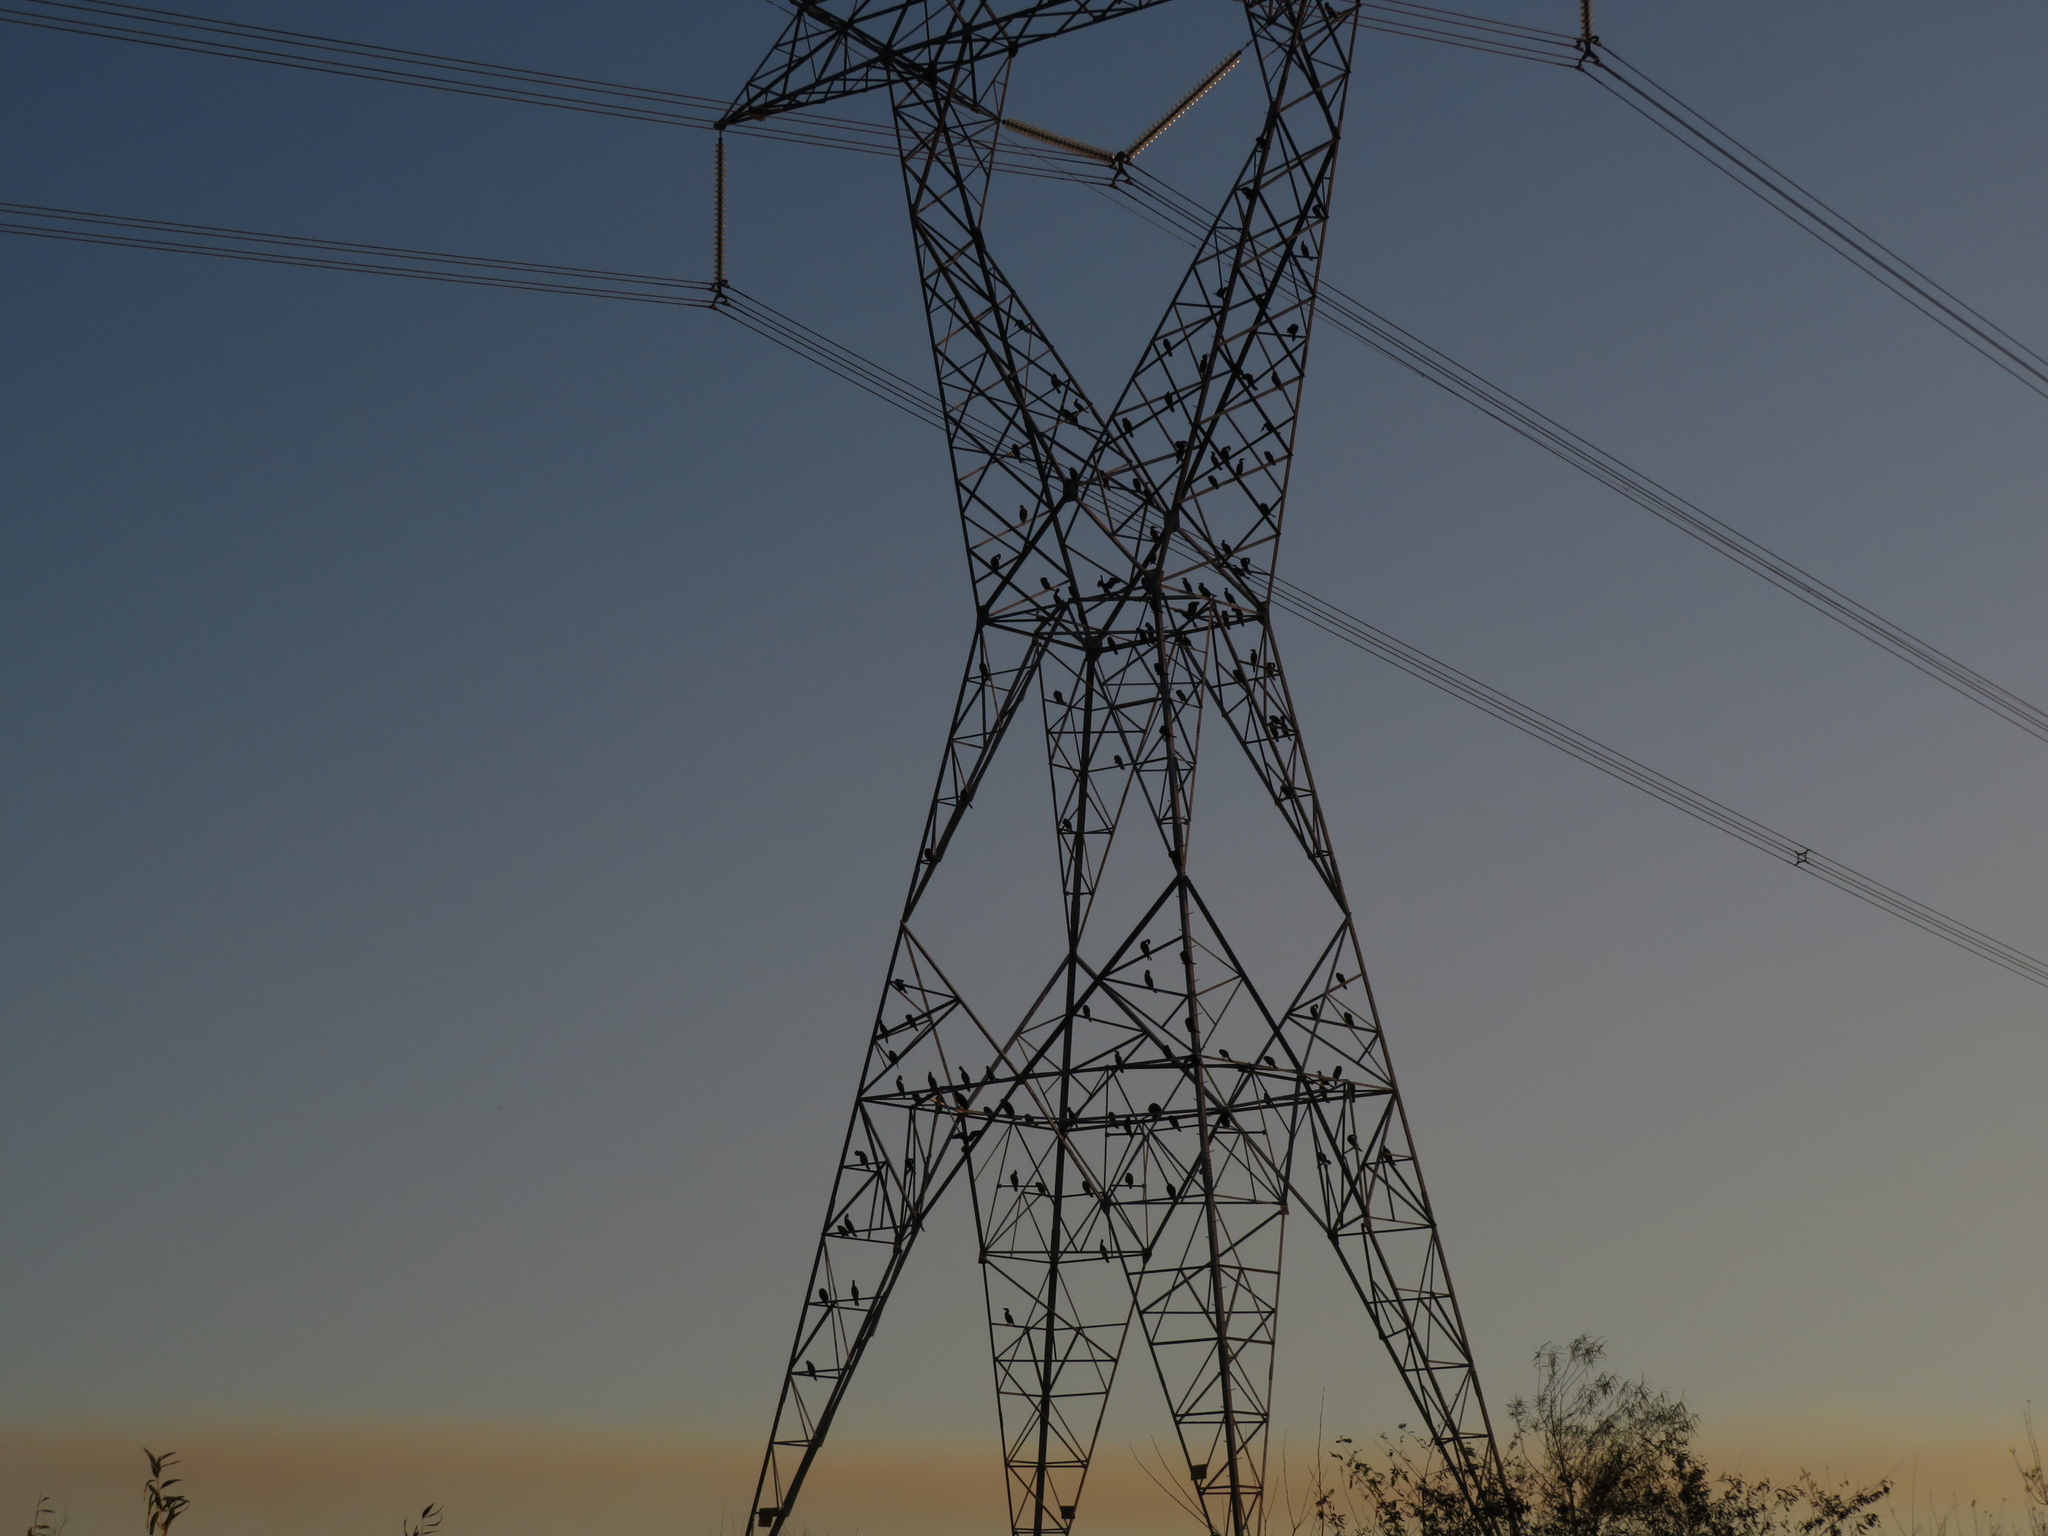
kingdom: Animalia
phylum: Chordata
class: Aves
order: Suliformes
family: Phalacrocoracidae
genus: Phalacrocorax
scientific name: Phalacrocorax brasilianus
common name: Neotropic cormorant
